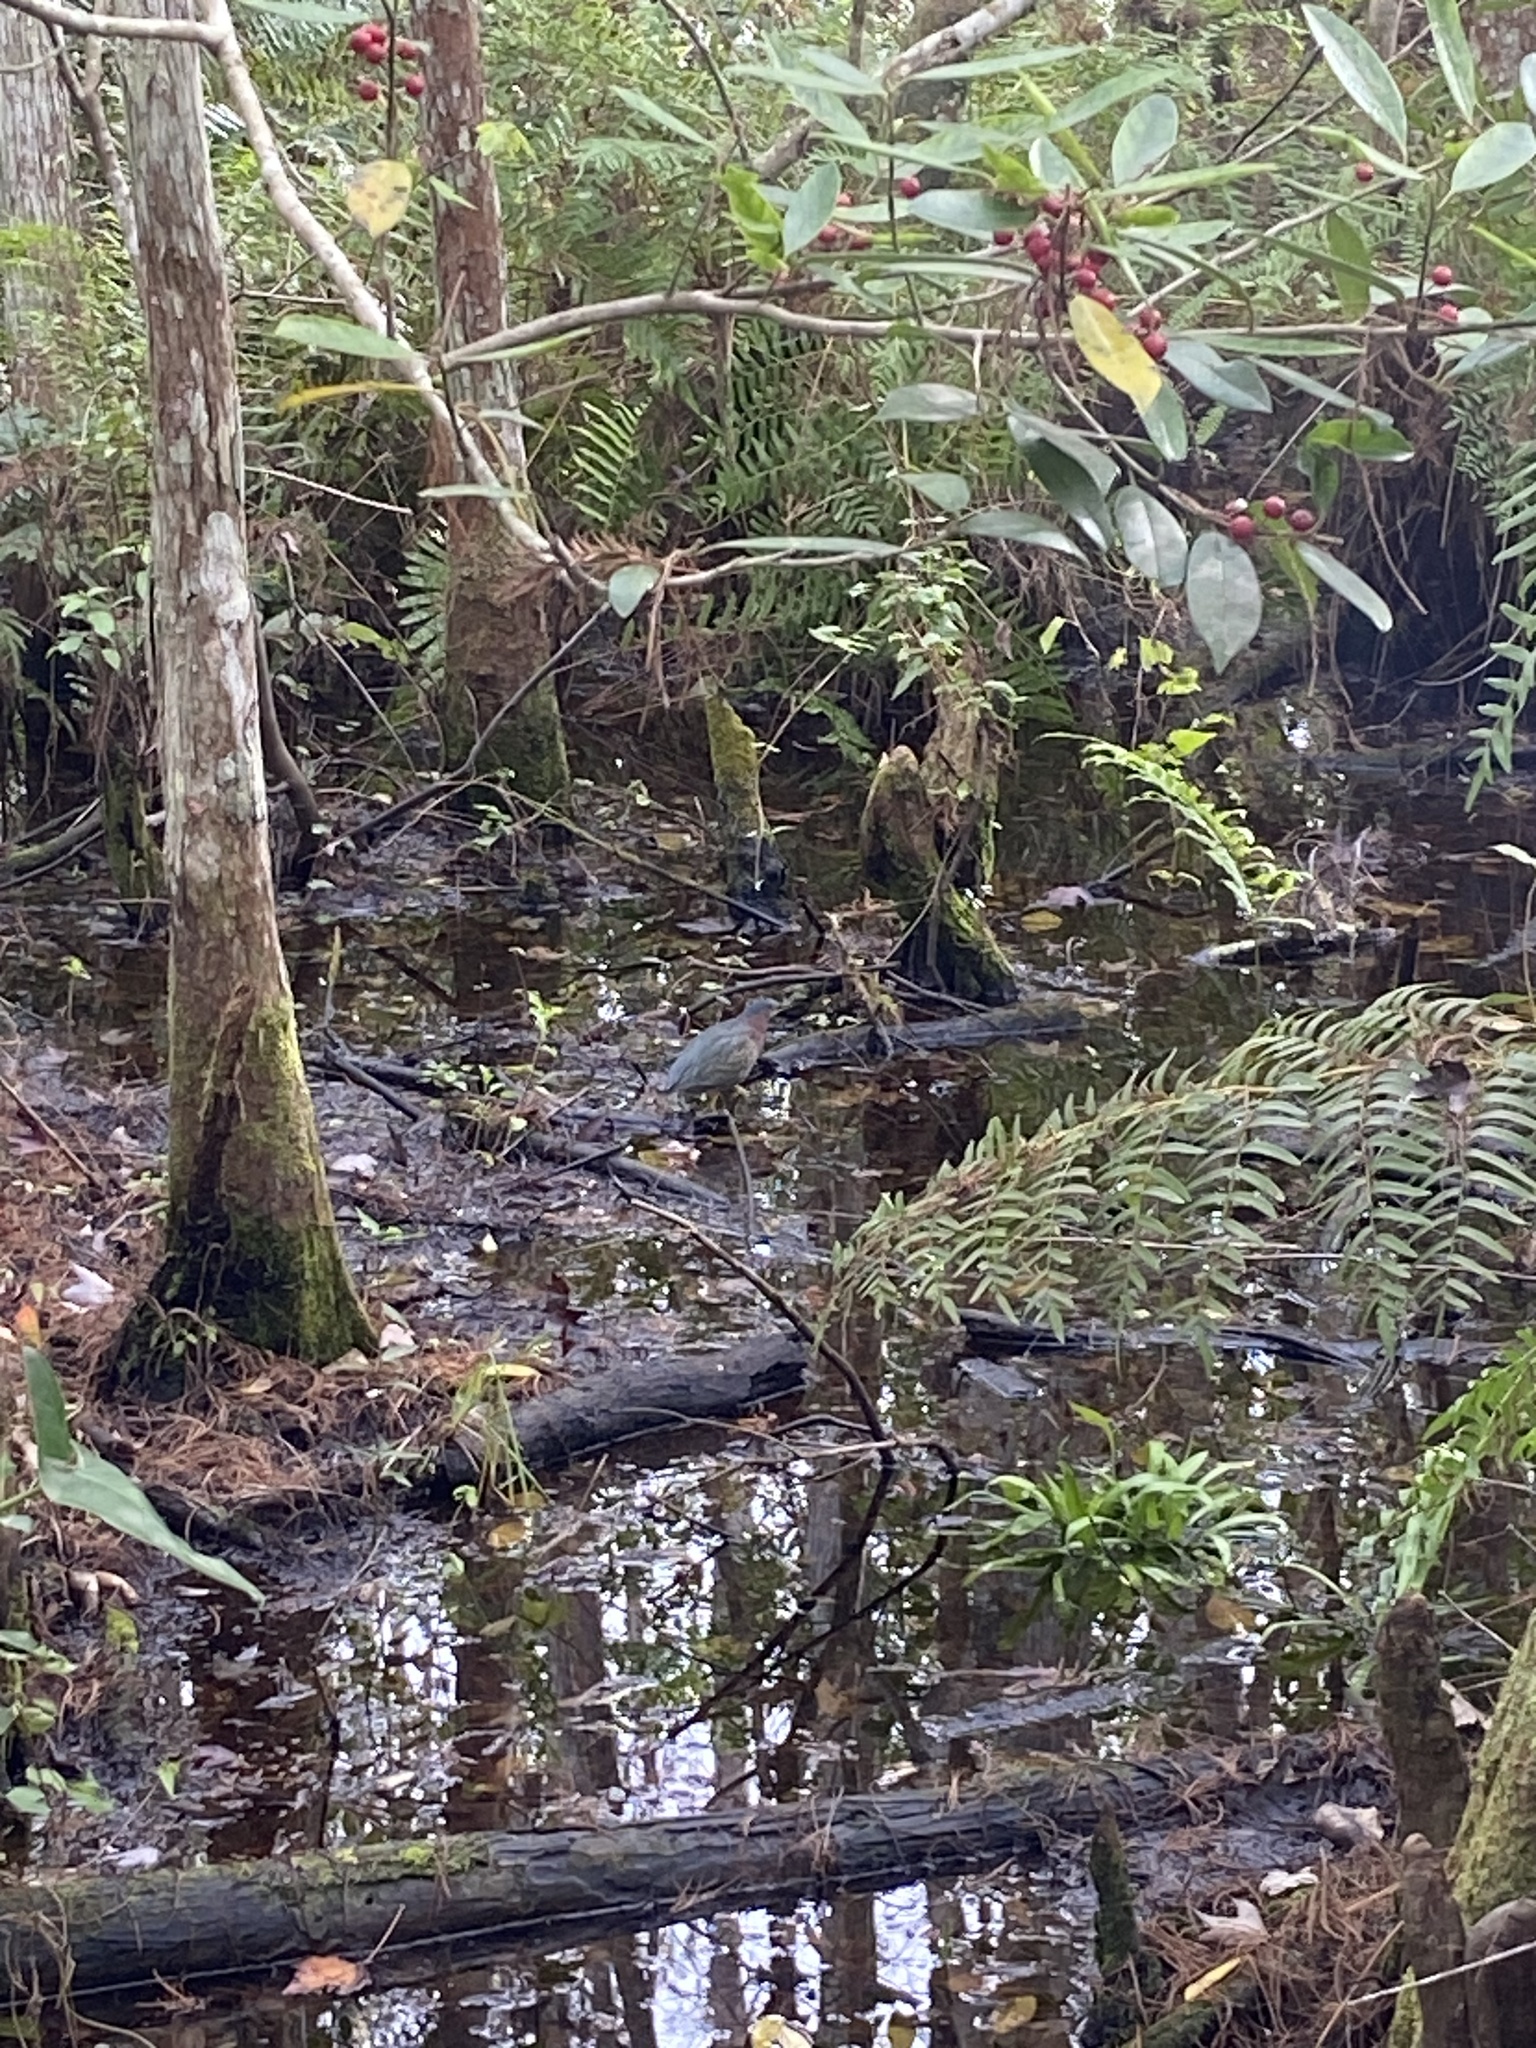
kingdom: Animalia
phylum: Chordata
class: Aves
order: Pelecaniformes
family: Ardeidae
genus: Butorides
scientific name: Butorides virescens
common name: Green heron
